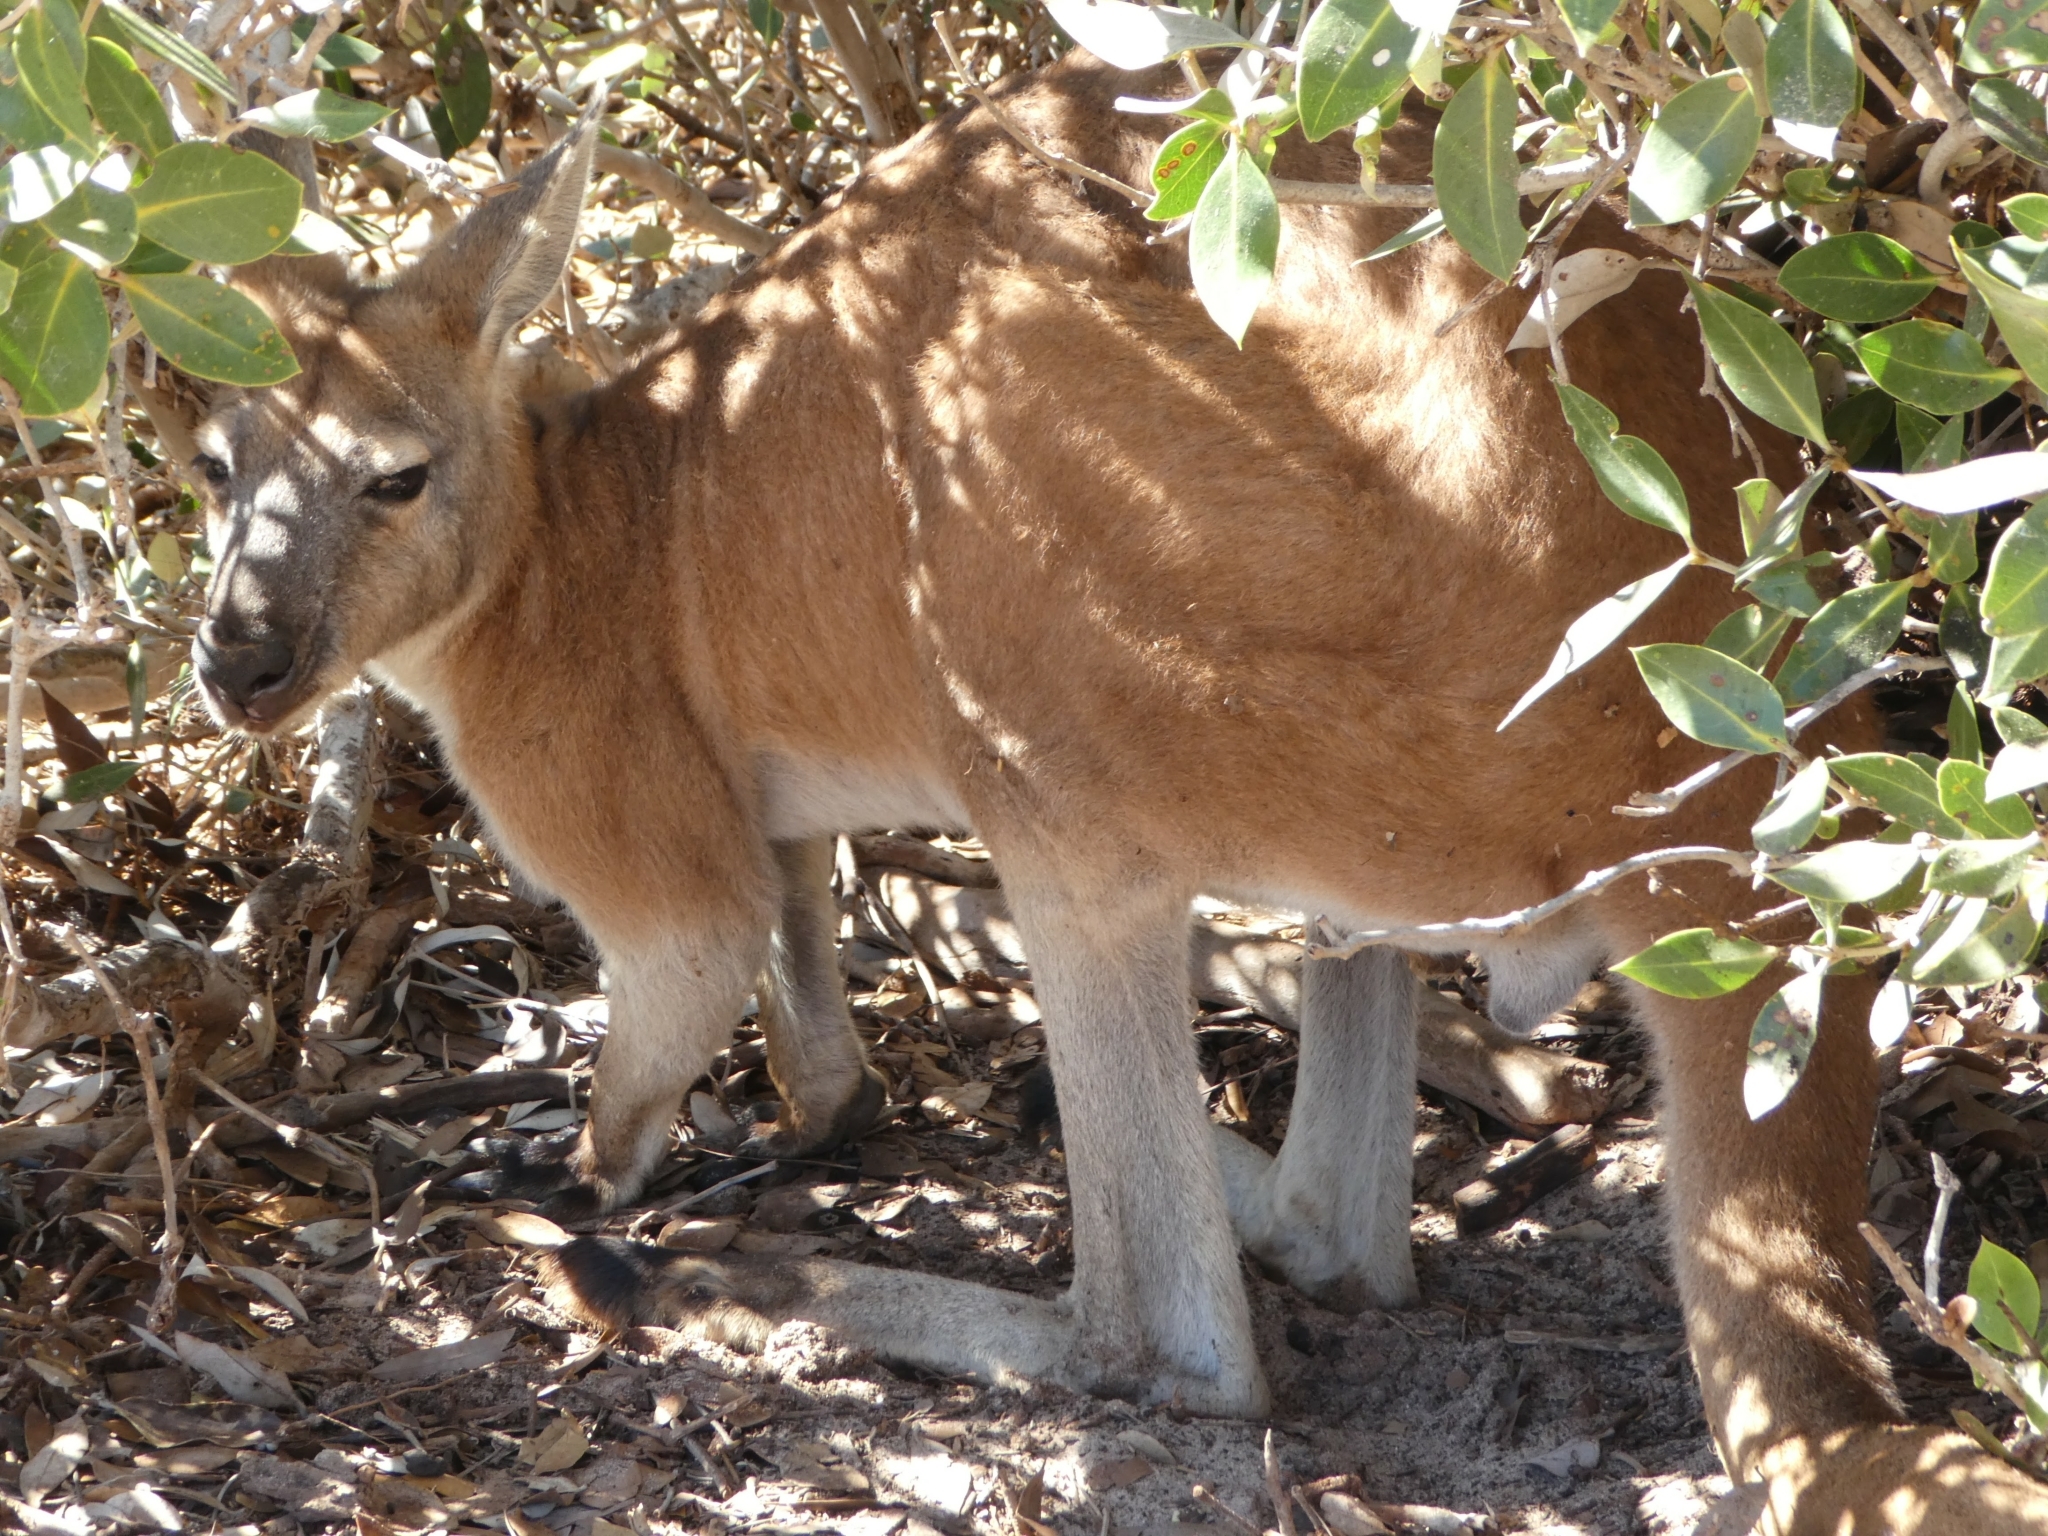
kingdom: Animalia
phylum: Chordata
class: Mammalia
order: Diprotodontia
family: Macropodidae
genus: Macropus
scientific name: Macropus robustus
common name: Eastern wallaroo
